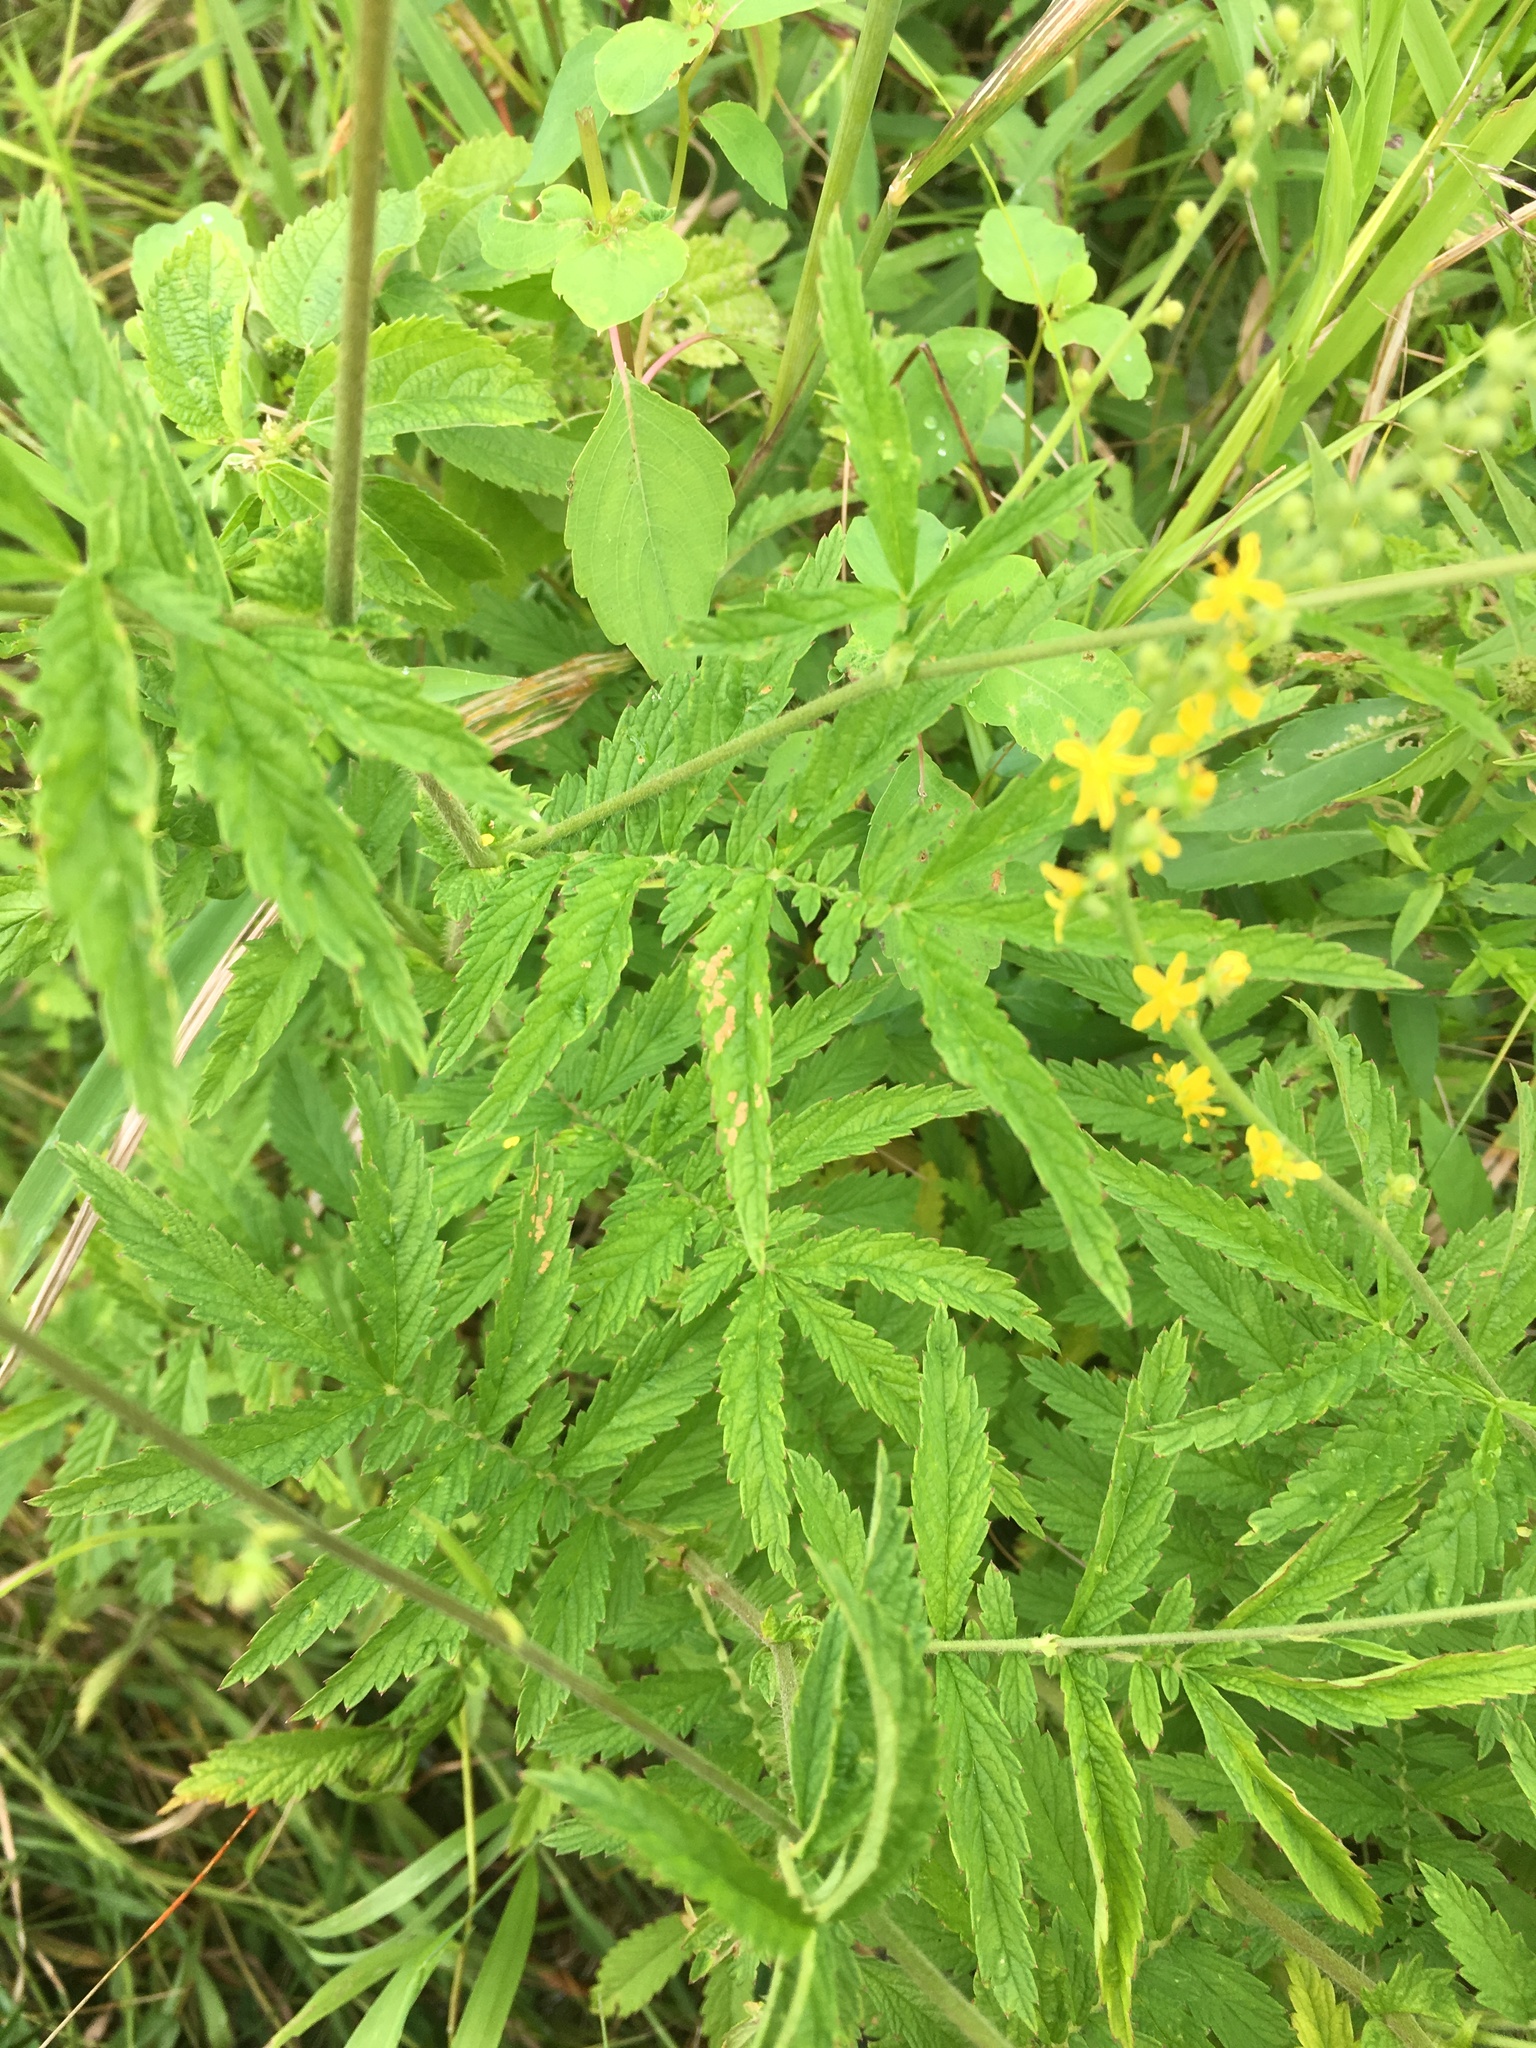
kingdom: Plantae
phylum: Tracheophyta
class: Magnoliopsida
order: Rosales
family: Rosaceae
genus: Agrimonia
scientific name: Agrimonia parviflora
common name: Harvest-lice
